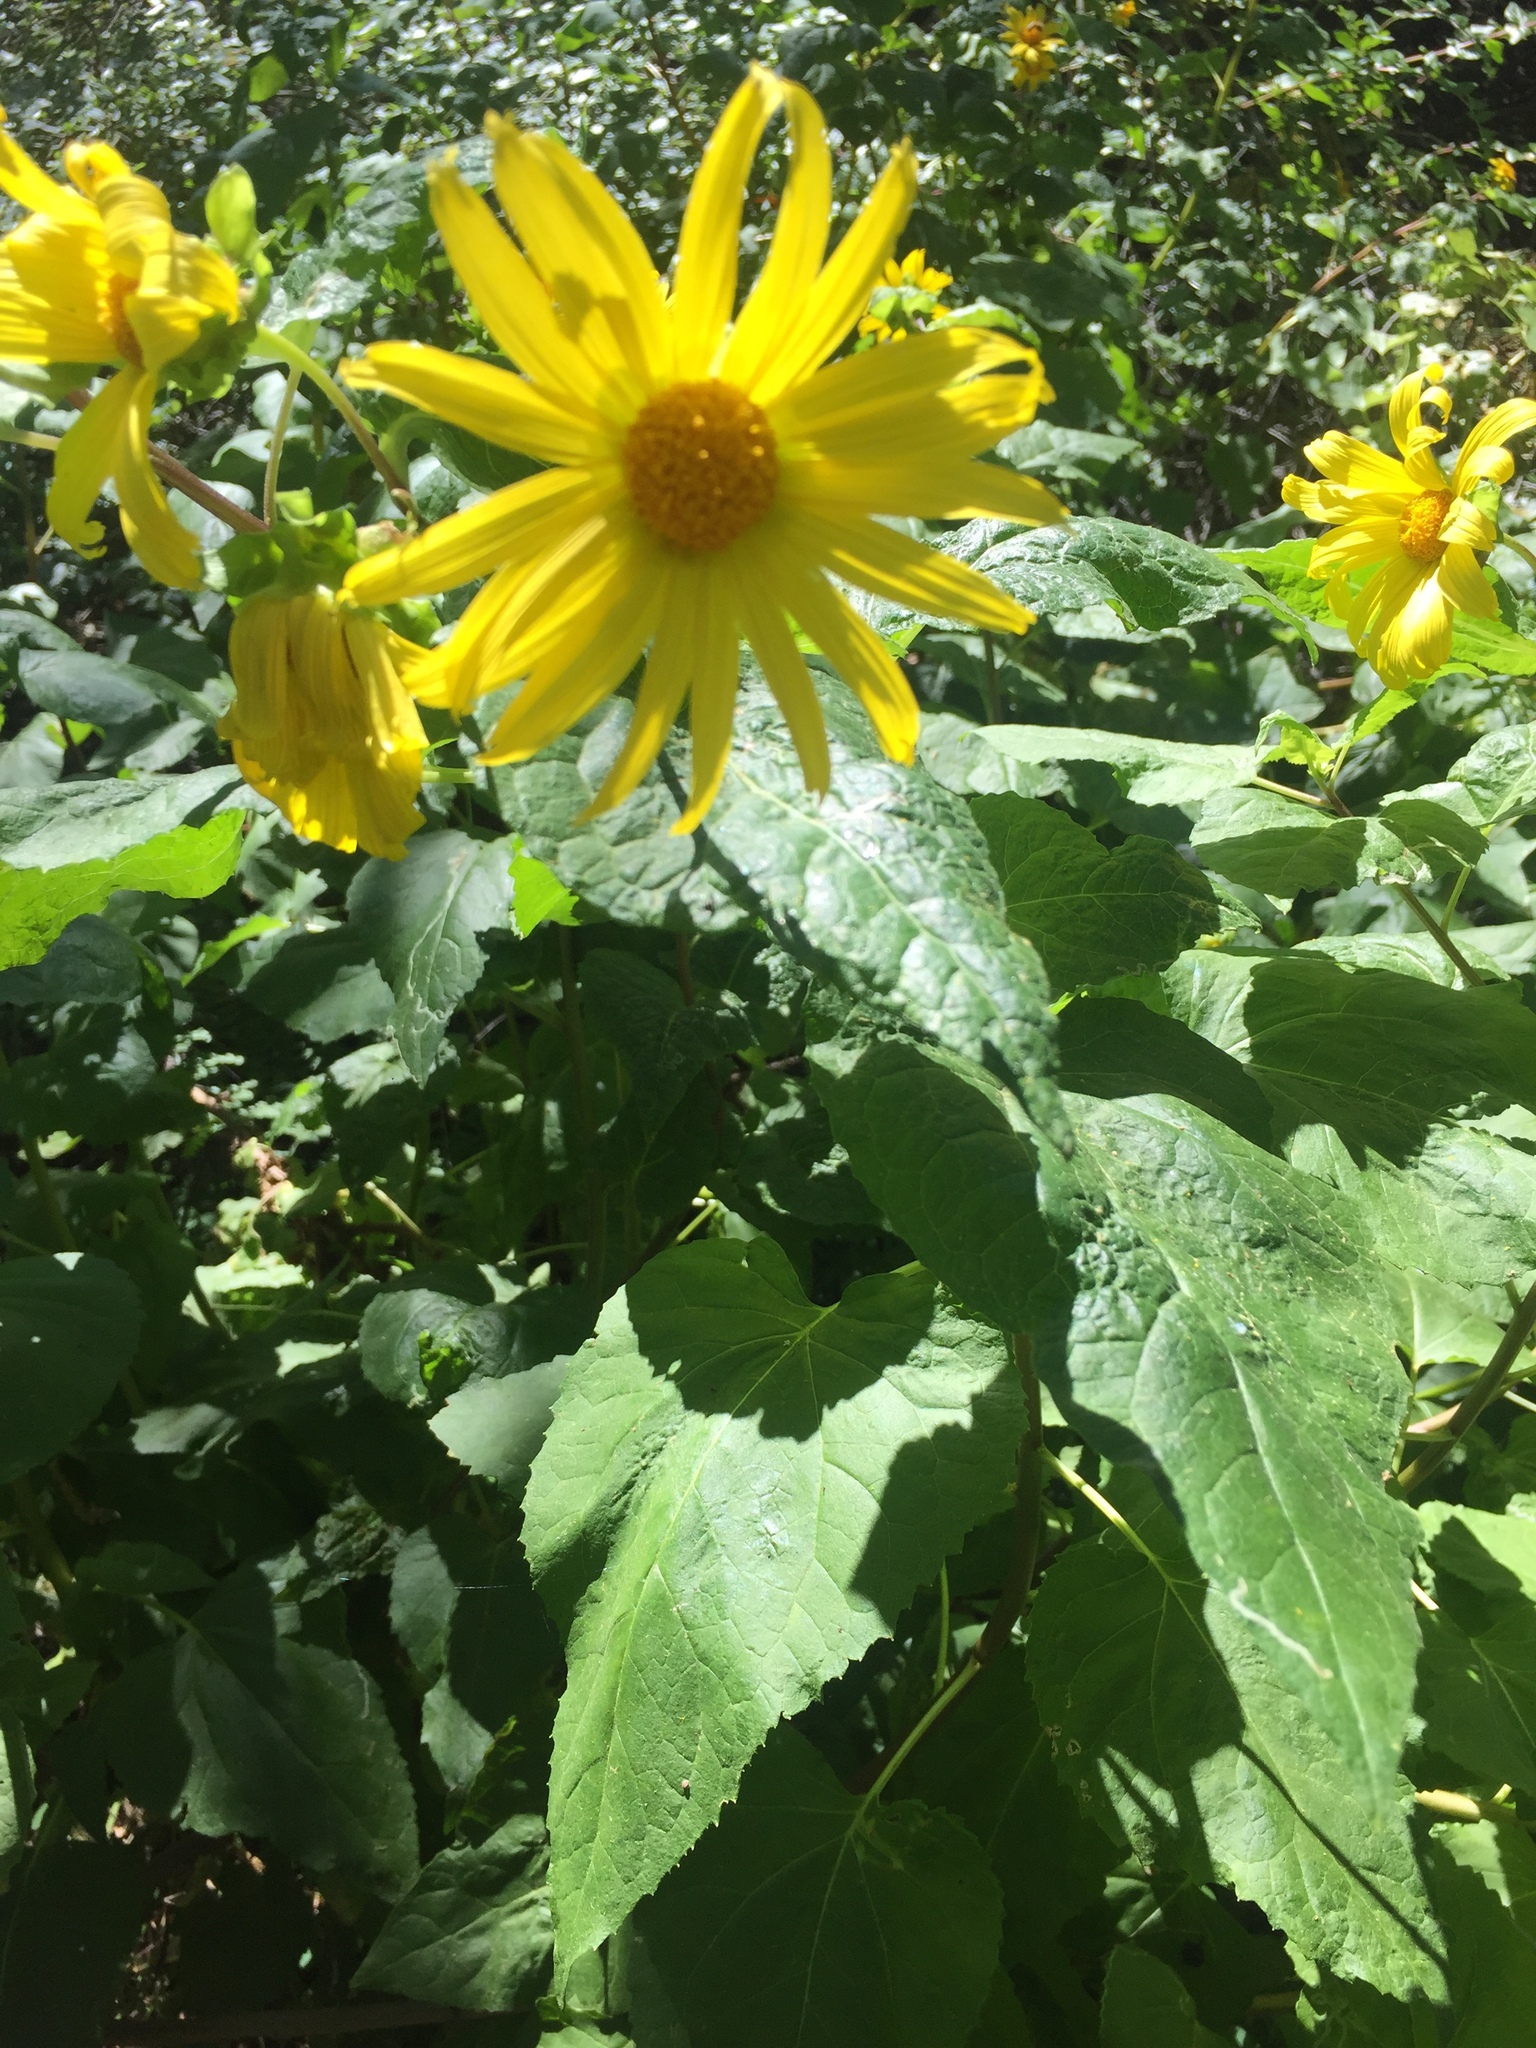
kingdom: Plantae
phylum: Tracheophyta
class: Magnoliopsida
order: Asterales
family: Asteraceae
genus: Venegasia
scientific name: Venegasia carpesioides
